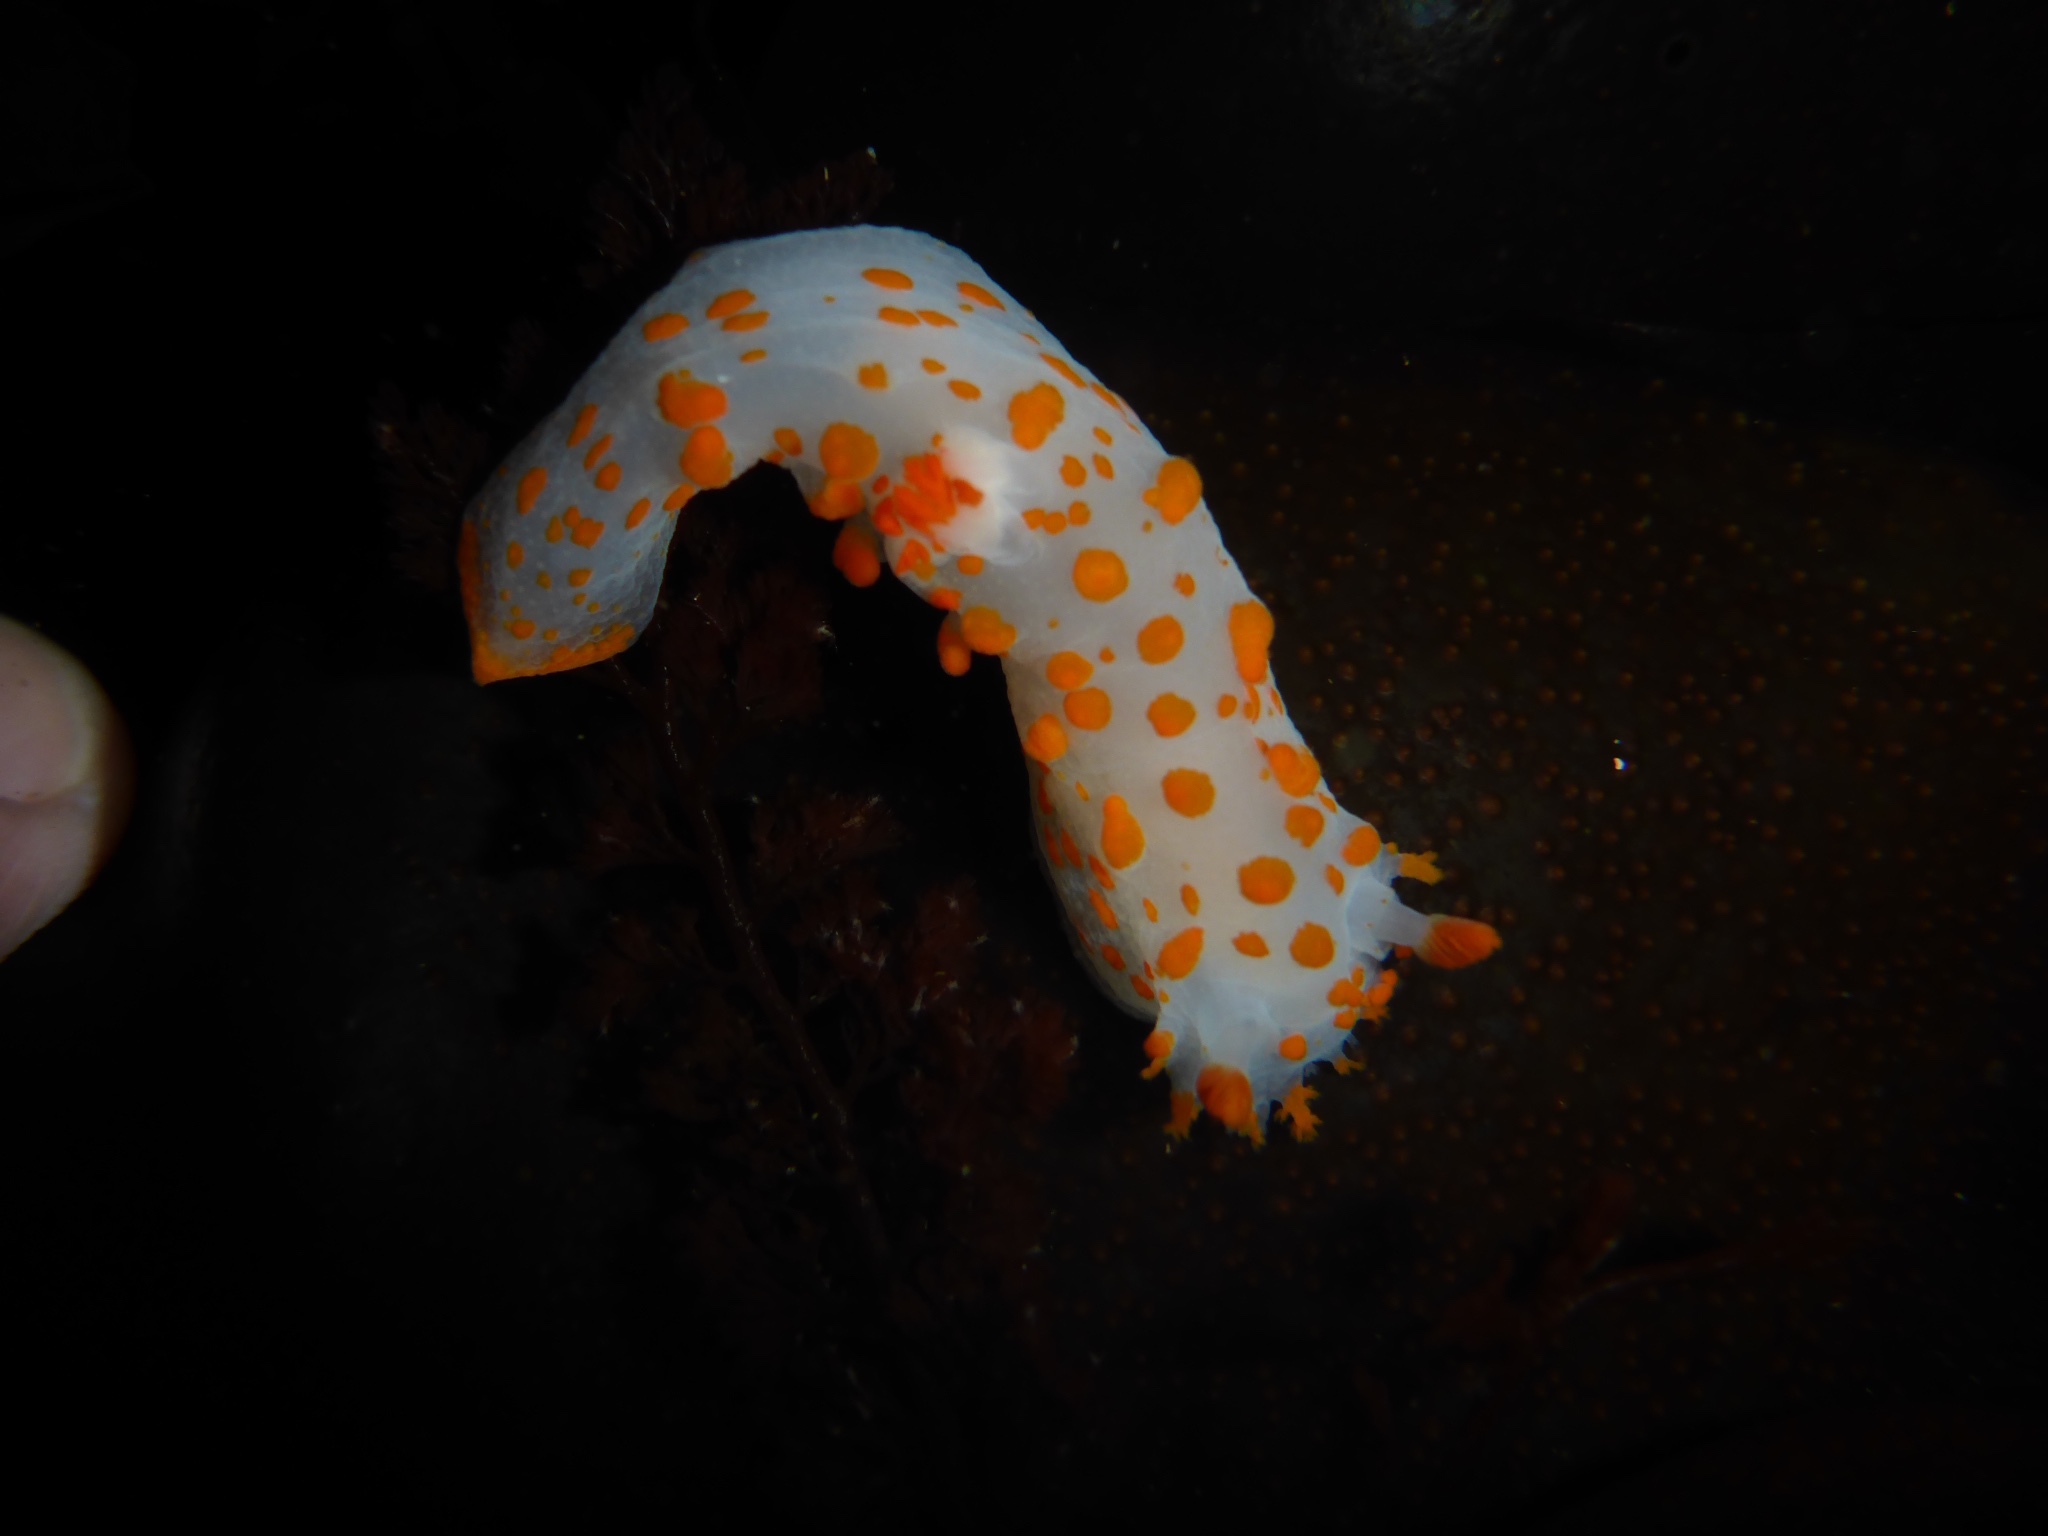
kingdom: Animalia
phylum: Mollusca
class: Gastropoda
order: Nudibranchia
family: Polyceridae
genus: Triopha
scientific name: Triopha catalinae
